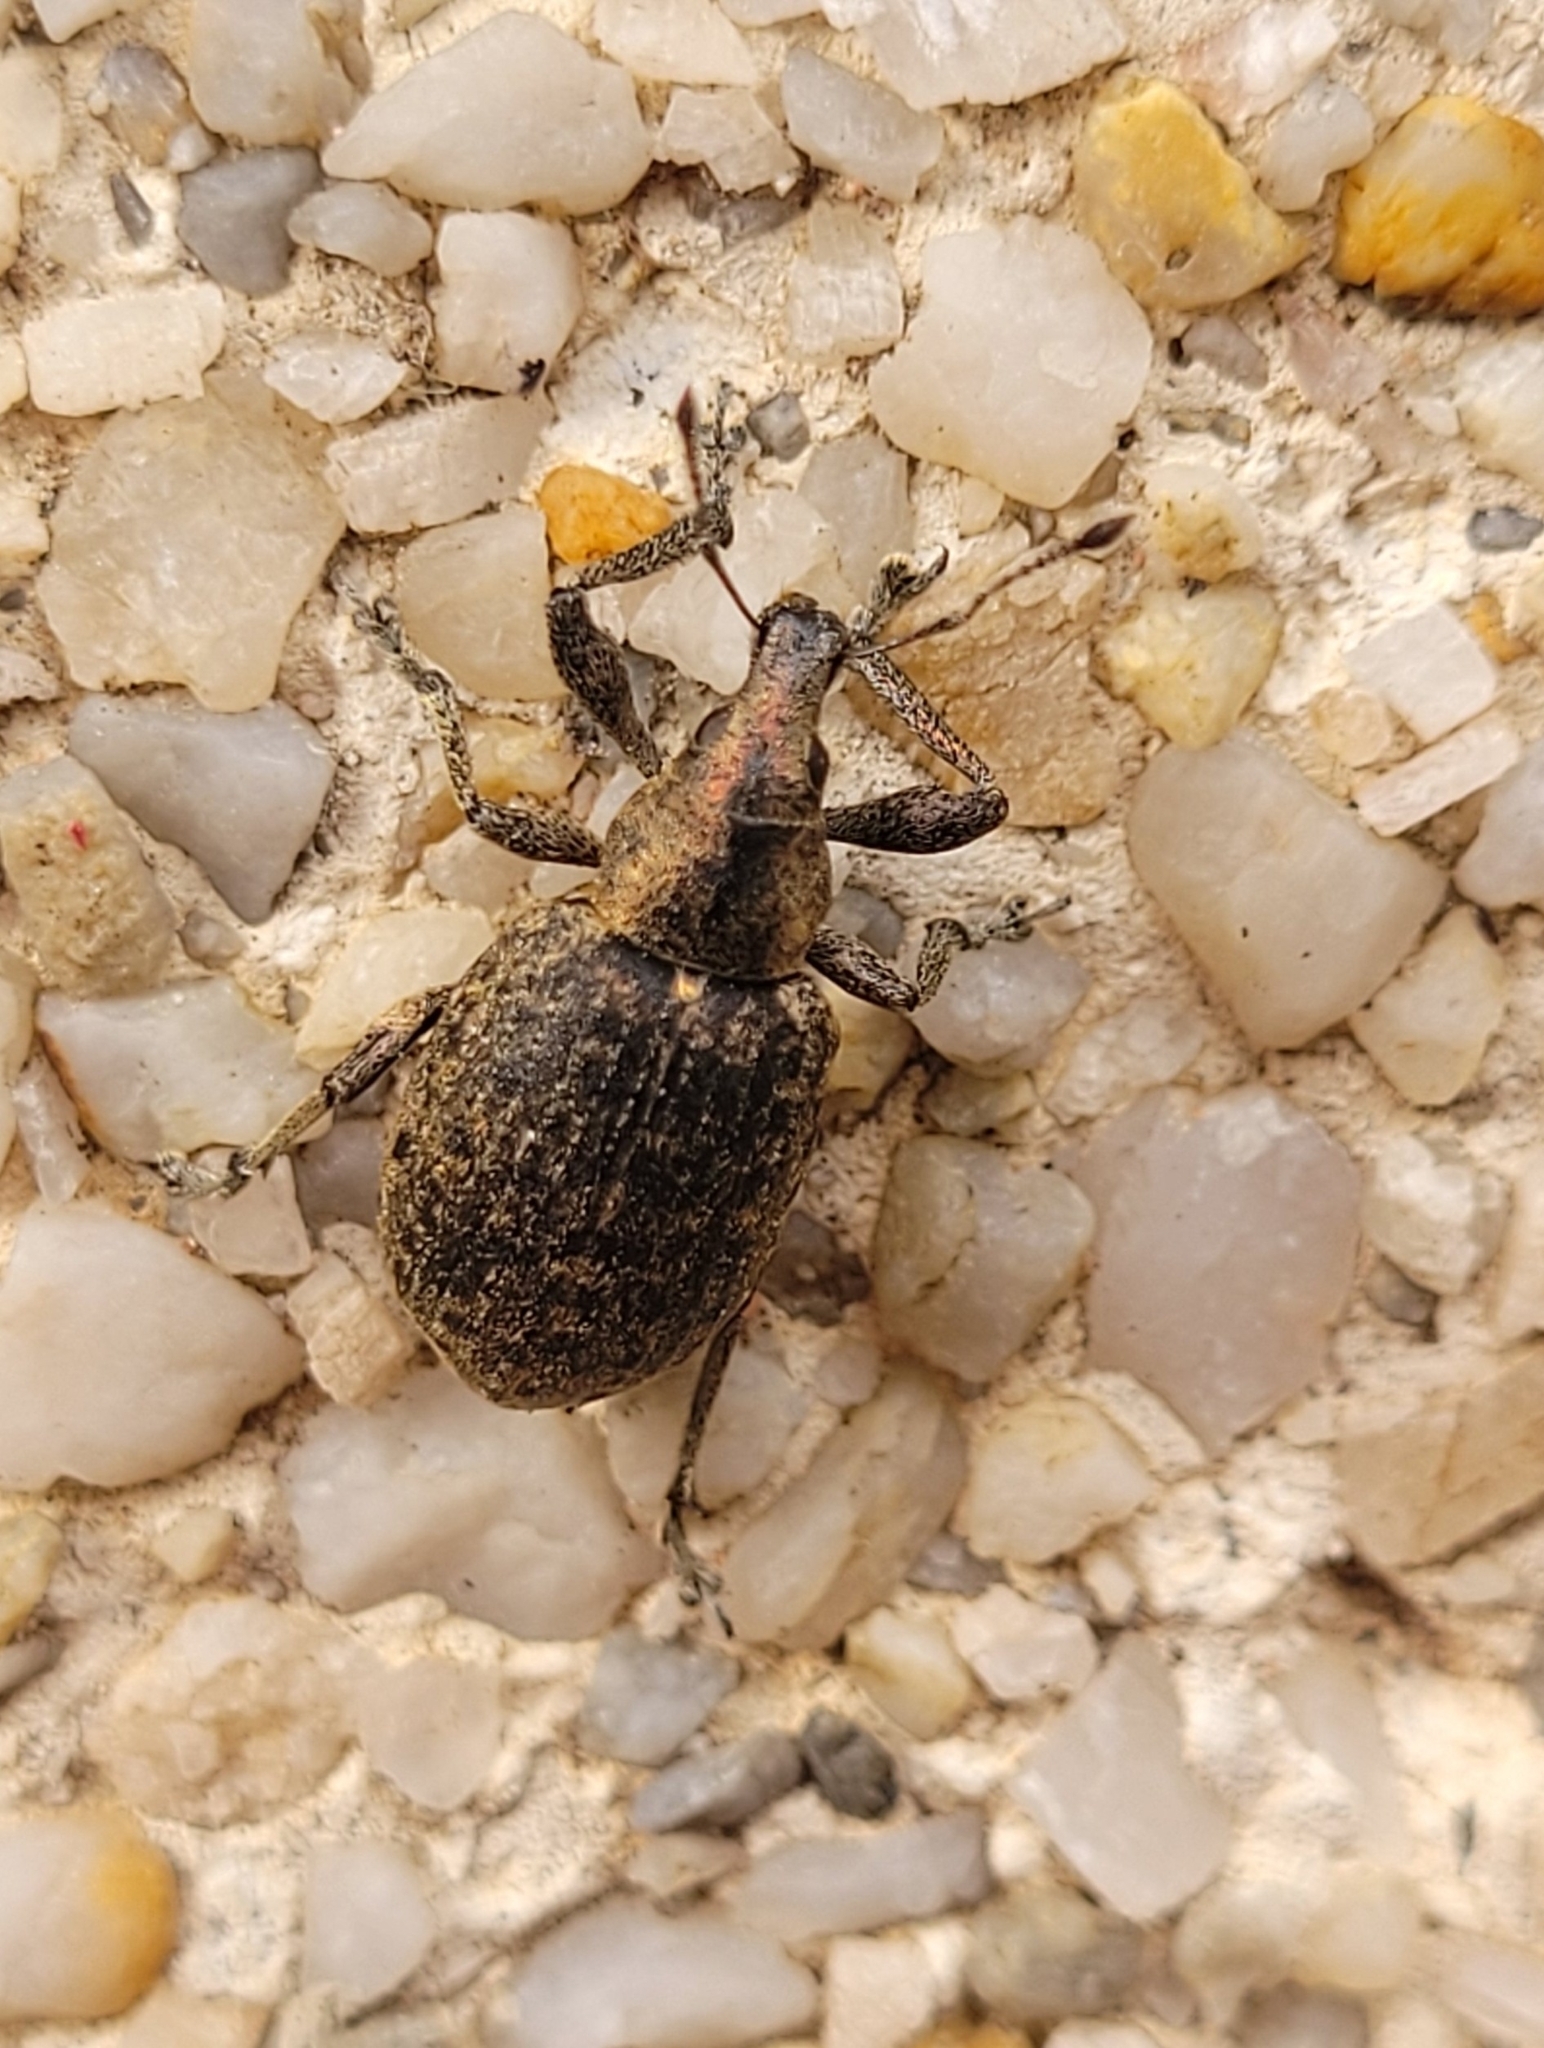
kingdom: Animalia
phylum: Arthropoda
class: Insecta
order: Coleoptera
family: Curculionidae
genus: Liophloeus
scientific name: Liophloeus tessulatus
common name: Weevil
